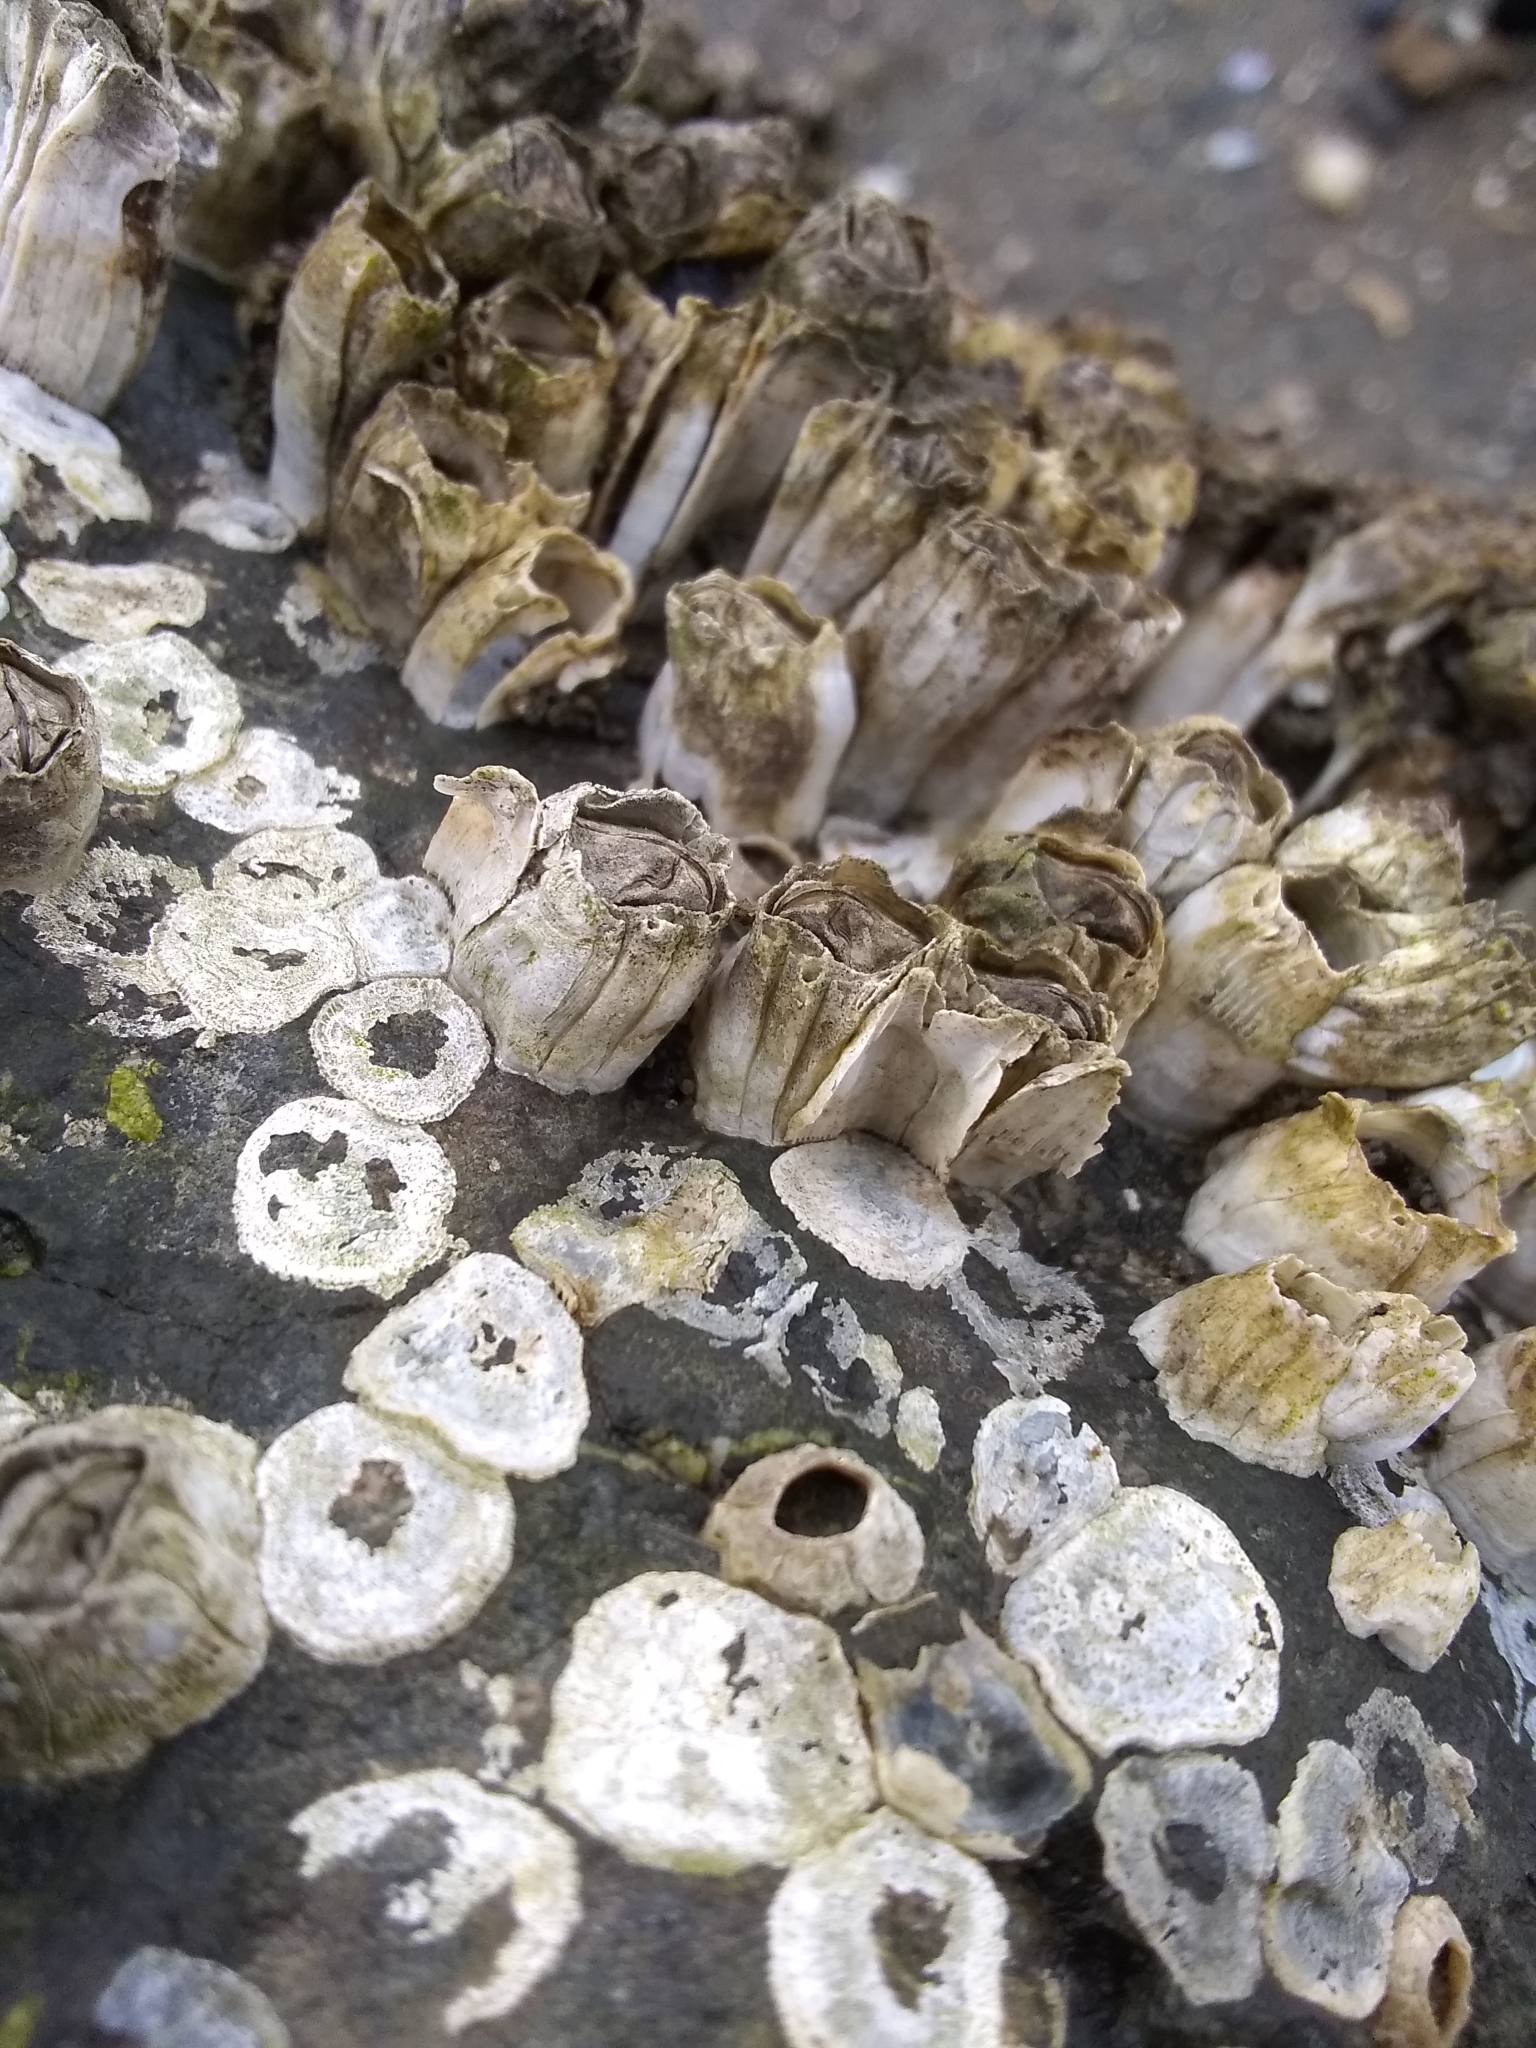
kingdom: Animalia
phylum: Arthropoda
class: Maxillopoda
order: Sessilia
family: Balanidae
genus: Balanus
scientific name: Balanus glandula
